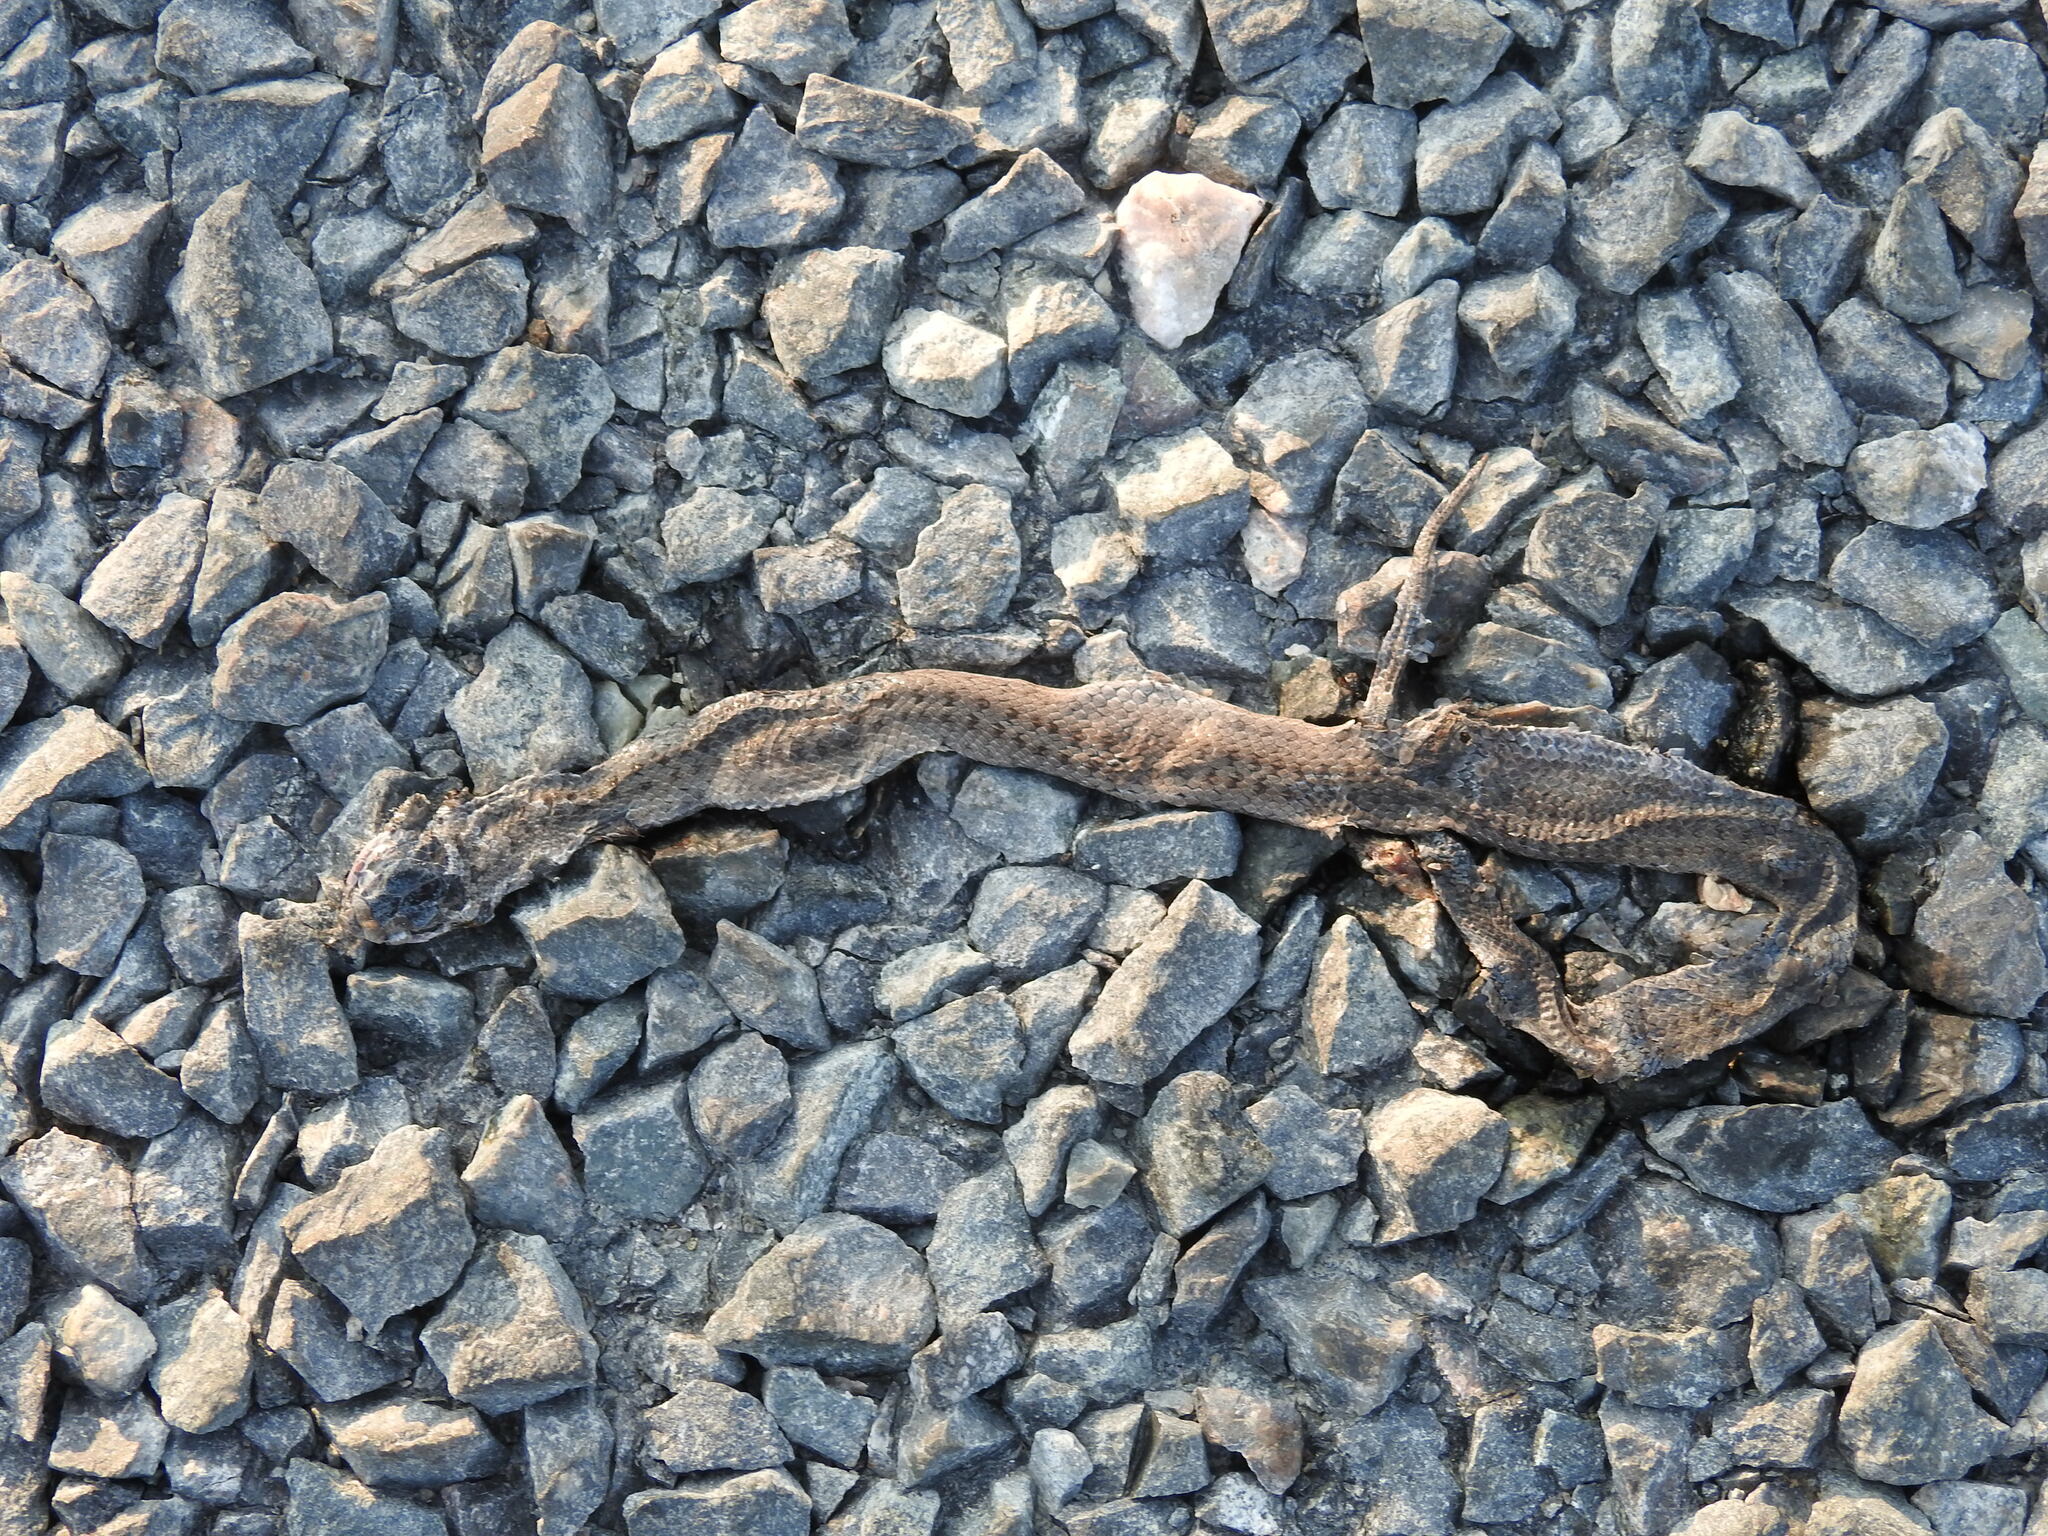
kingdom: Animalia
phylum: Chordata
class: Squamata
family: Colubridae
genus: Coronella
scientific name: Coronella austriaca
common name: Smooth snake
